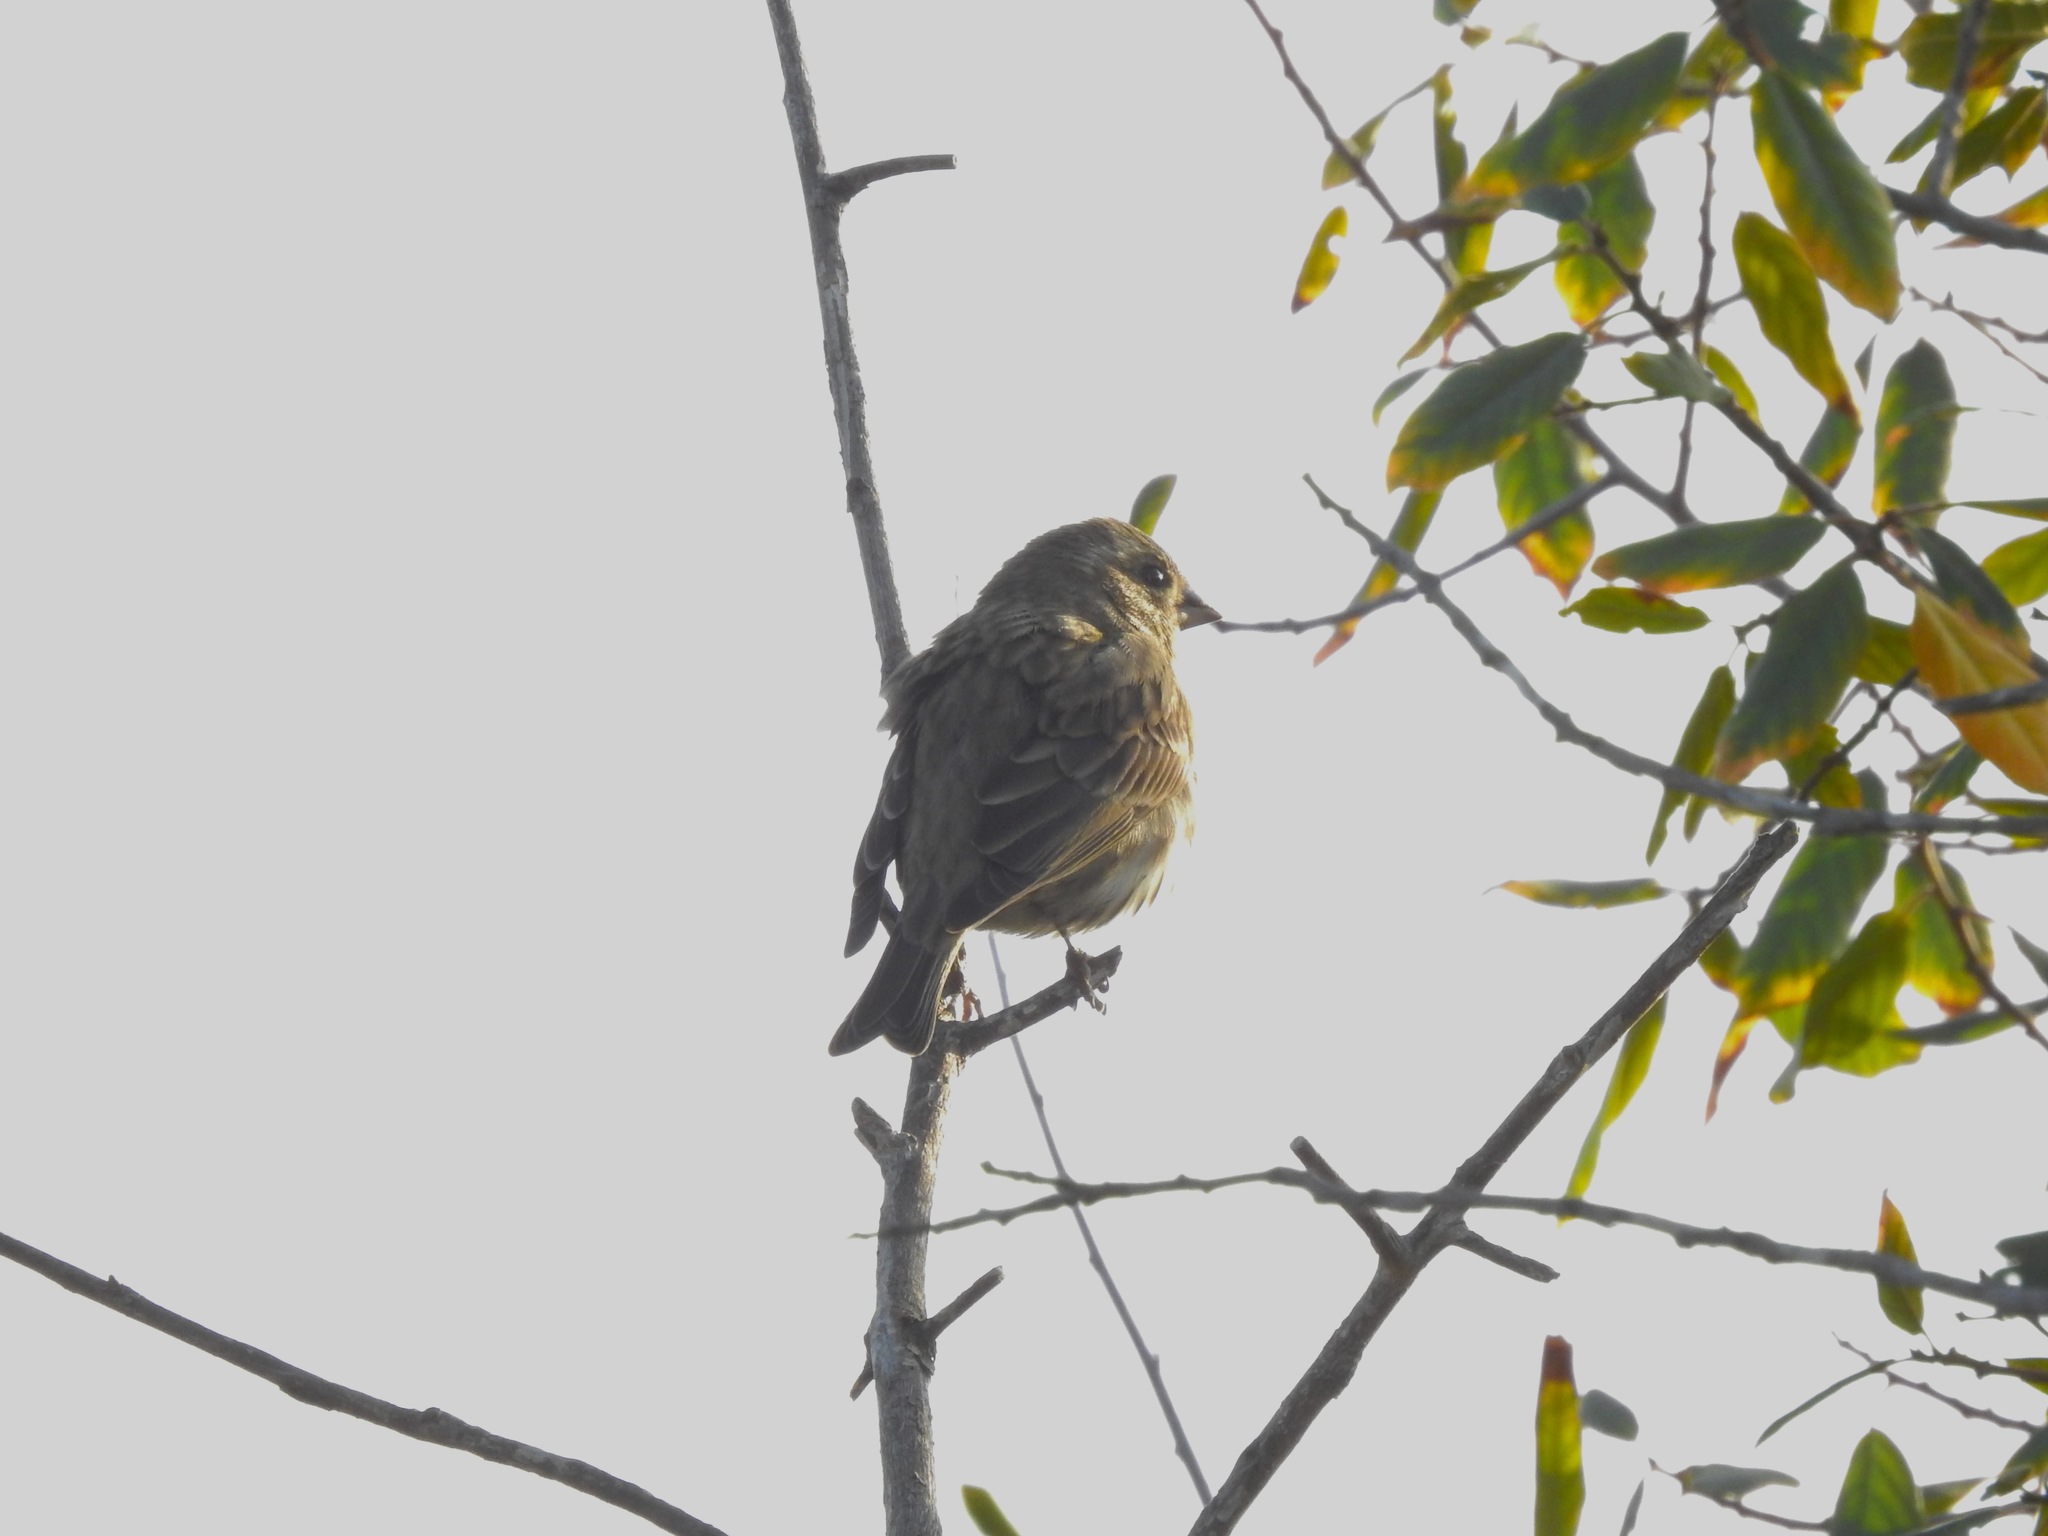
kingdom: Animalia
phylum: Chordata
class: Aves
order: Passeriformes
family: Fringillidae
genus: Haemorhous
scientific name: Haemorhous purpureus
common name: Purple finch
